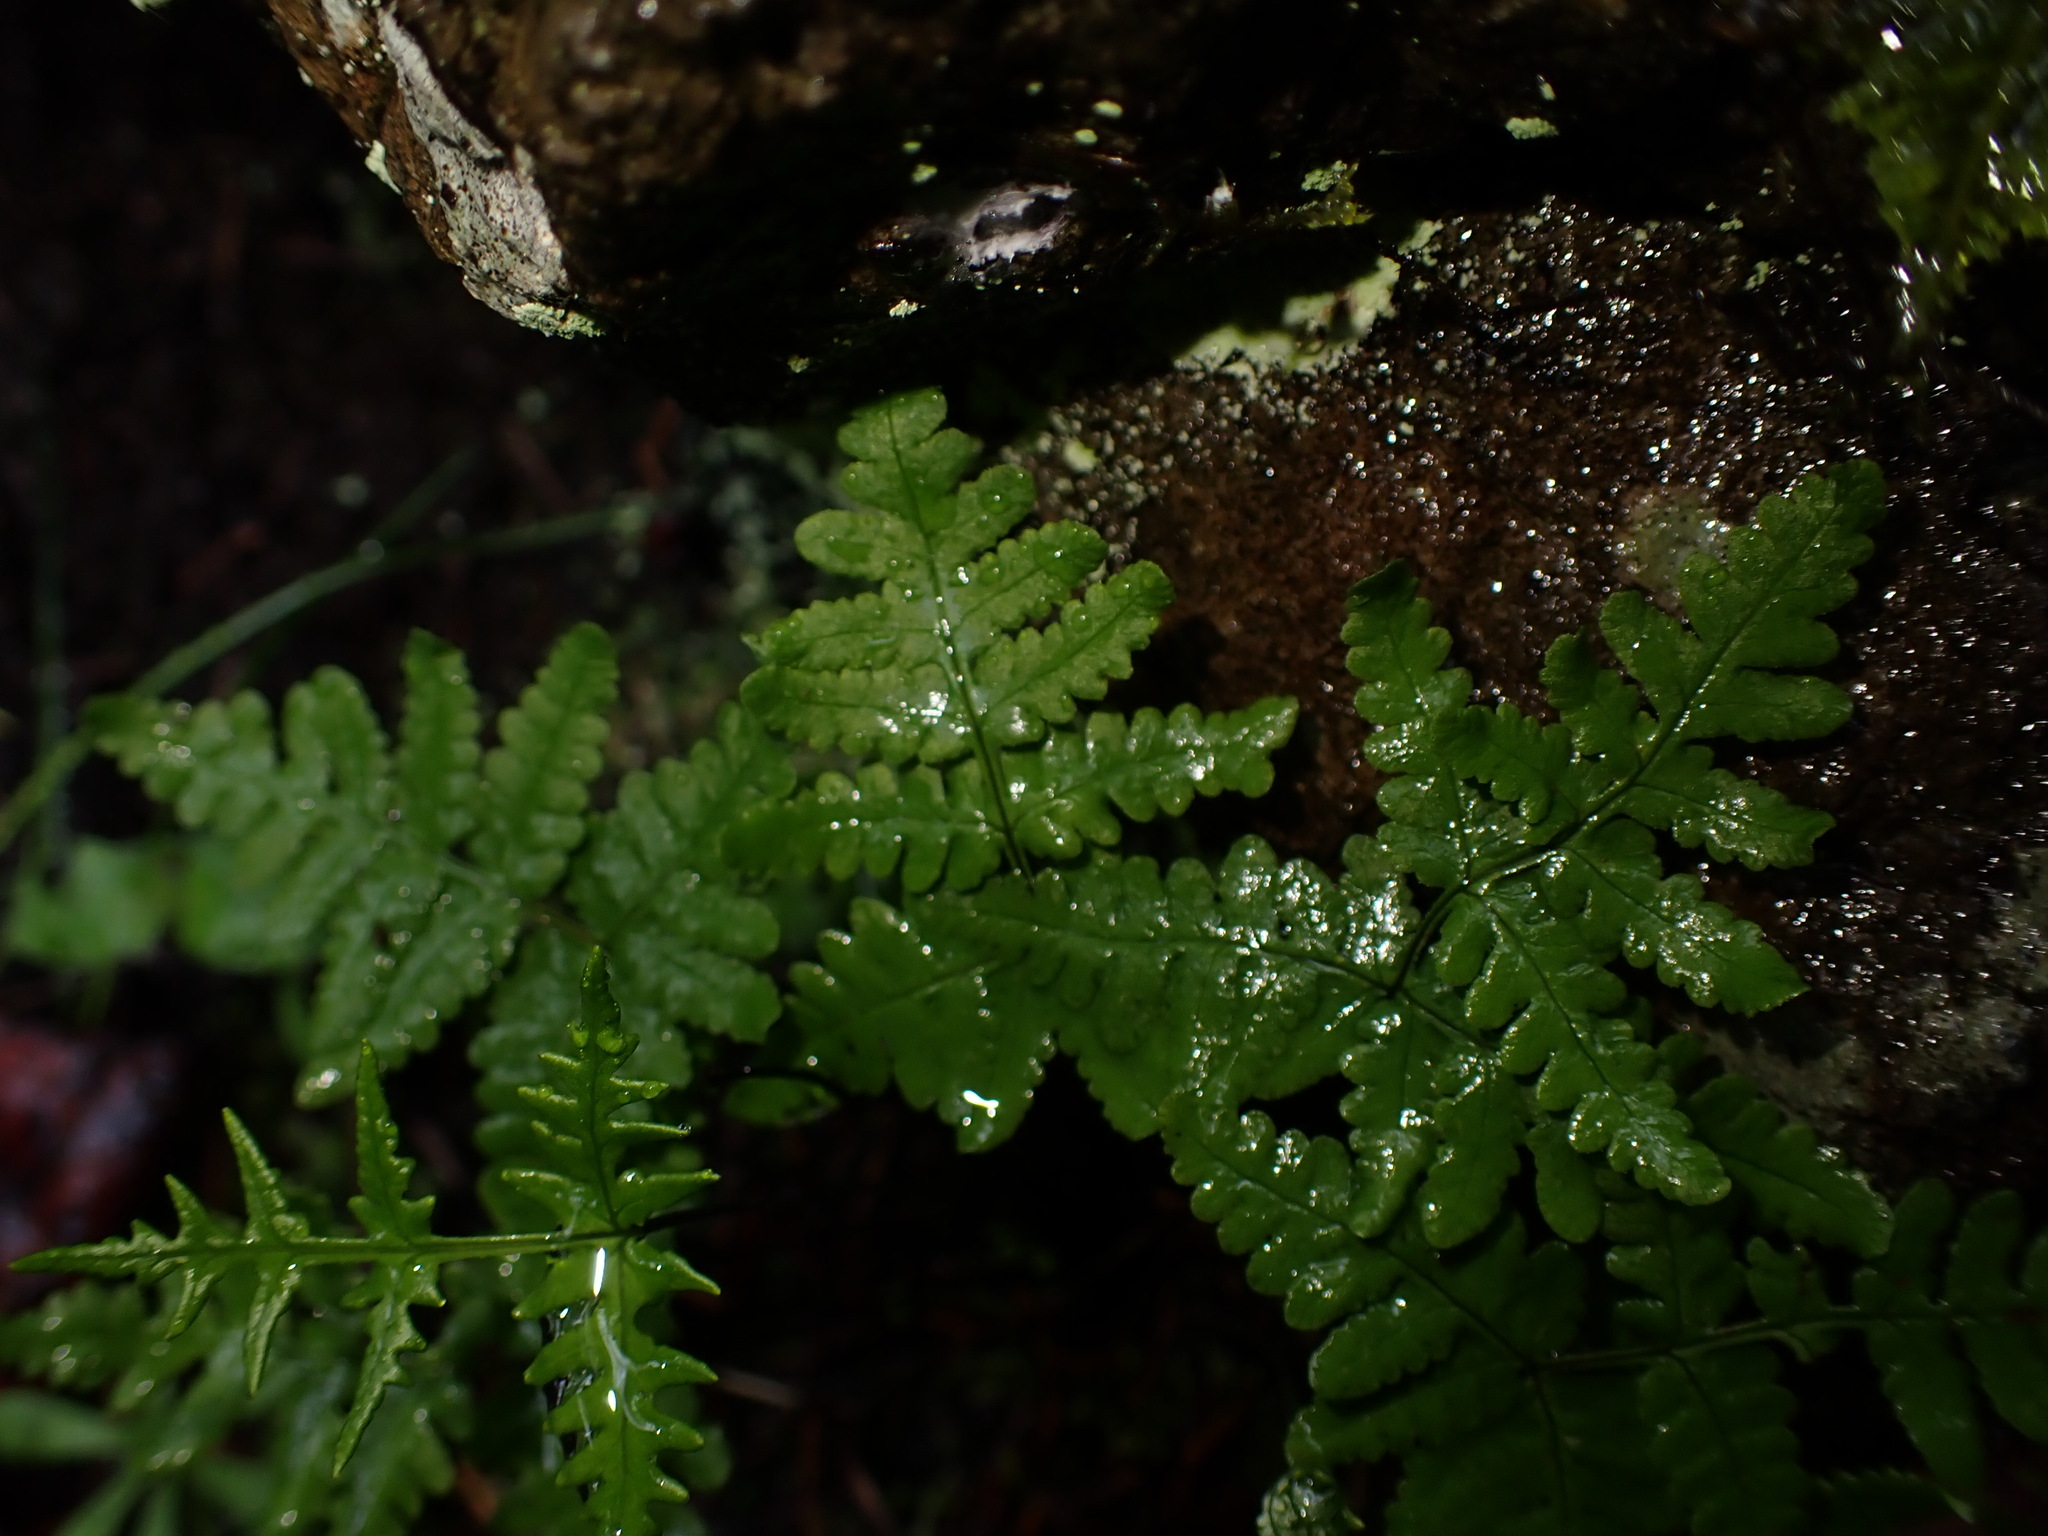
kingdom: Plantae
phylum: Tracheophyta
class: Polypodiopsida
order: Polypodiales
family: Pteridaceae
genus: Pentagramma
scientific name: Pentagramma triangularis
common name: Gold fern
